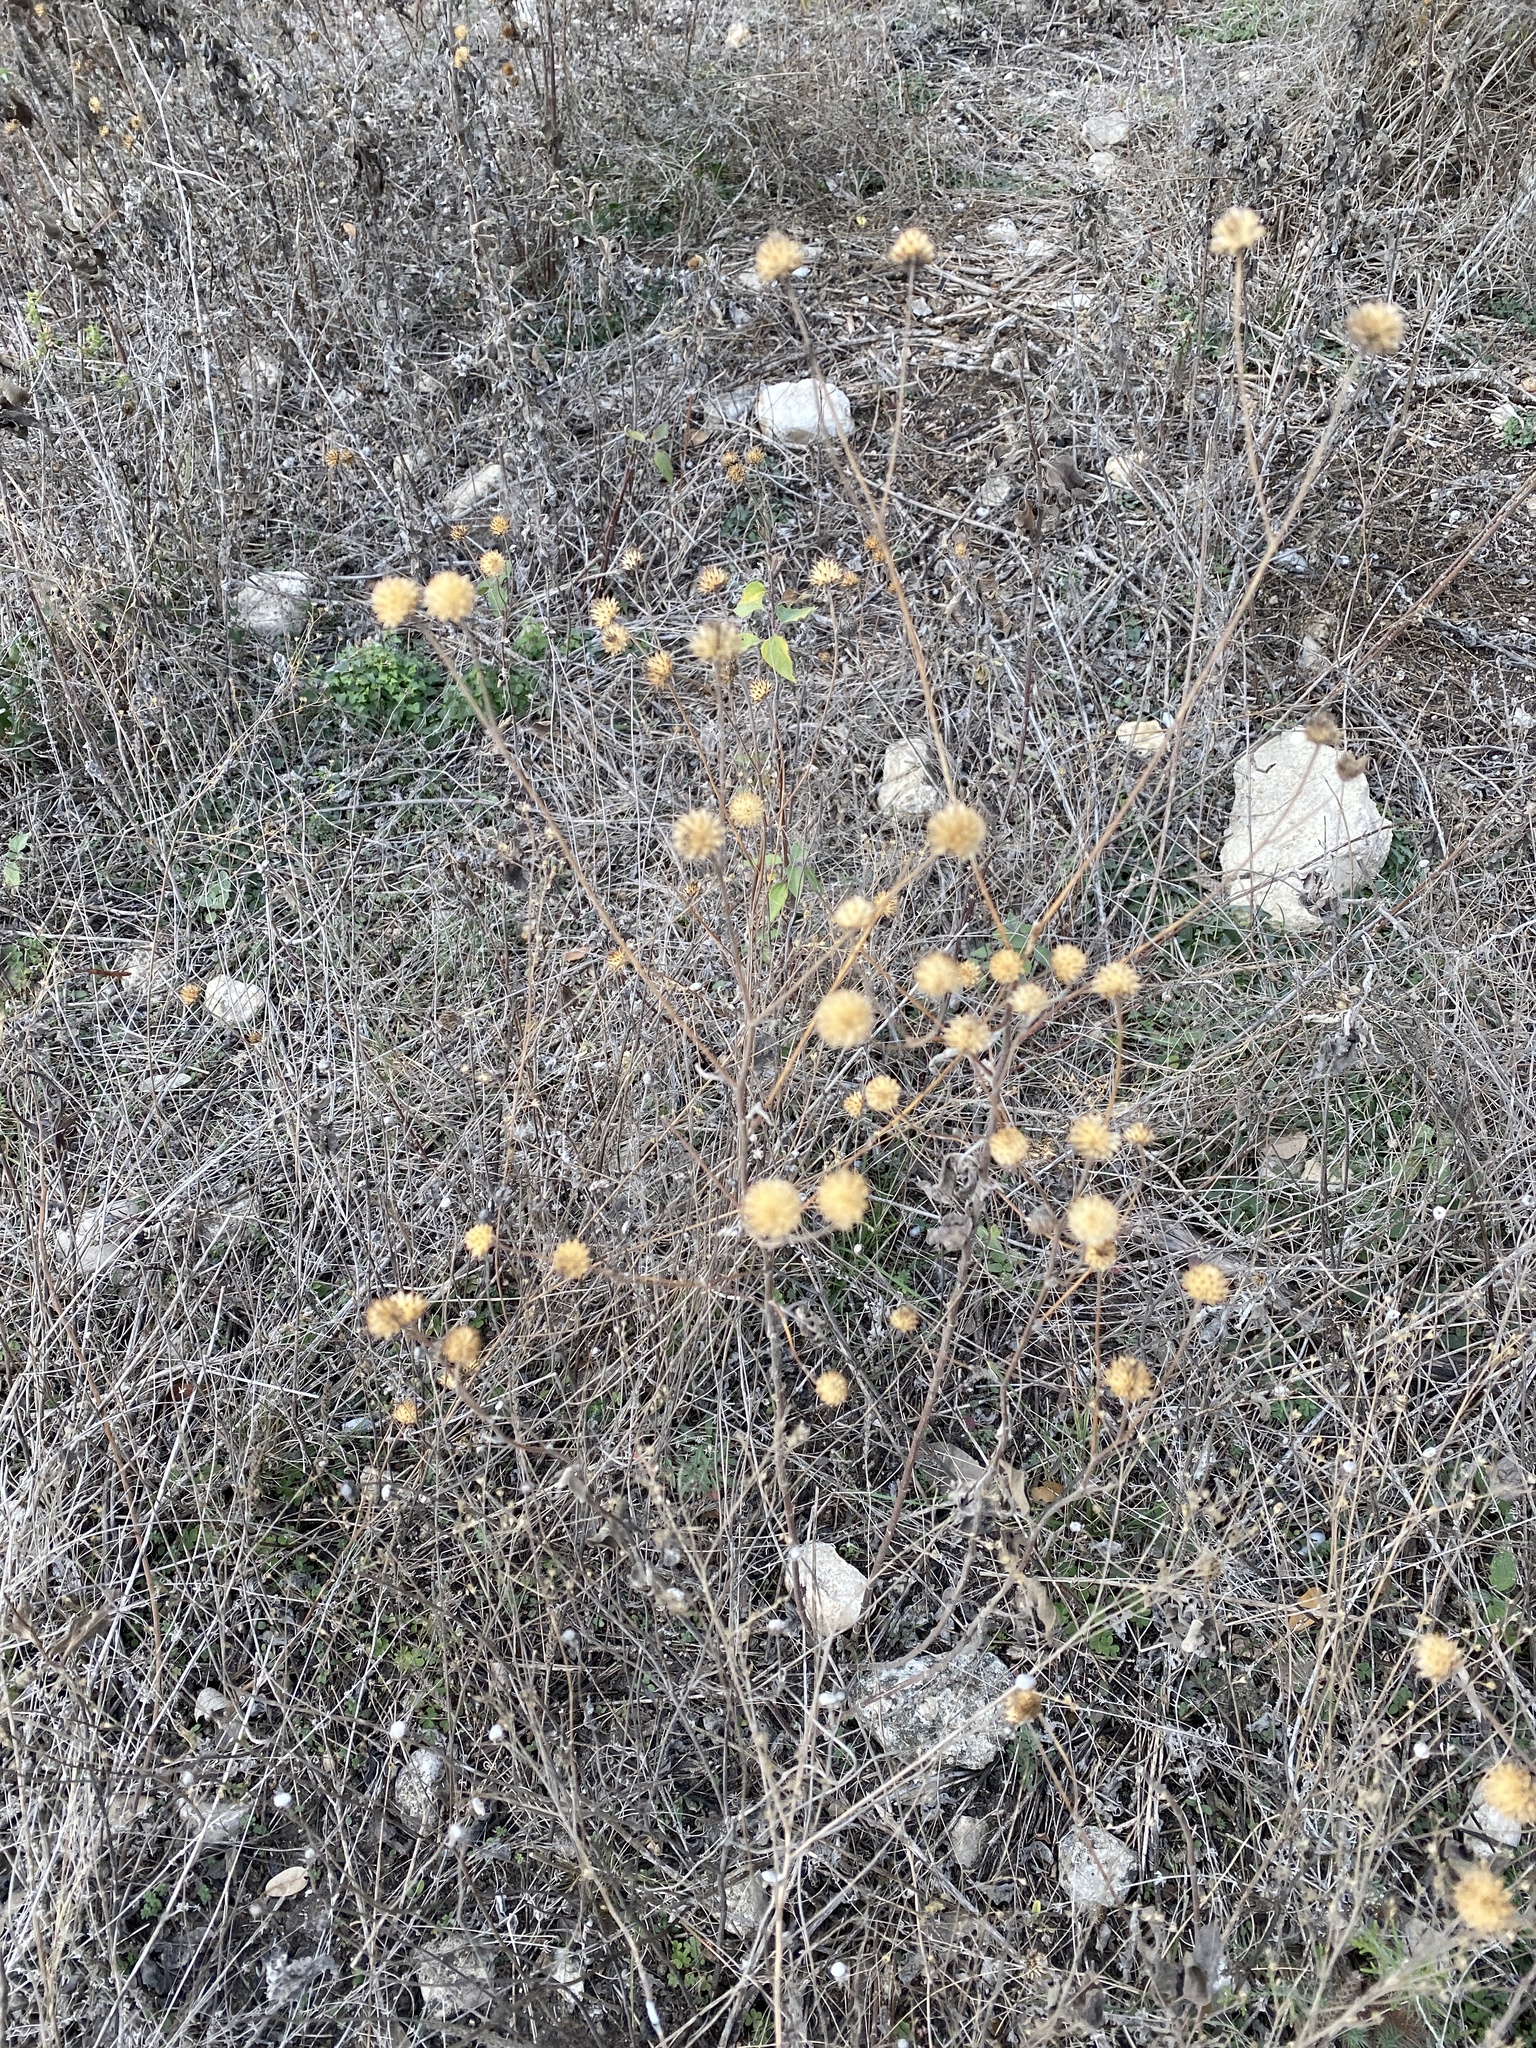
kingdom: Plantae
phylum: Tracheophyta
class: Magnoliopsida
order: Asterales
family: Asteraceae
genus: Viguiera
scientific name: Viguiera dentata
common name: Toothleaf
